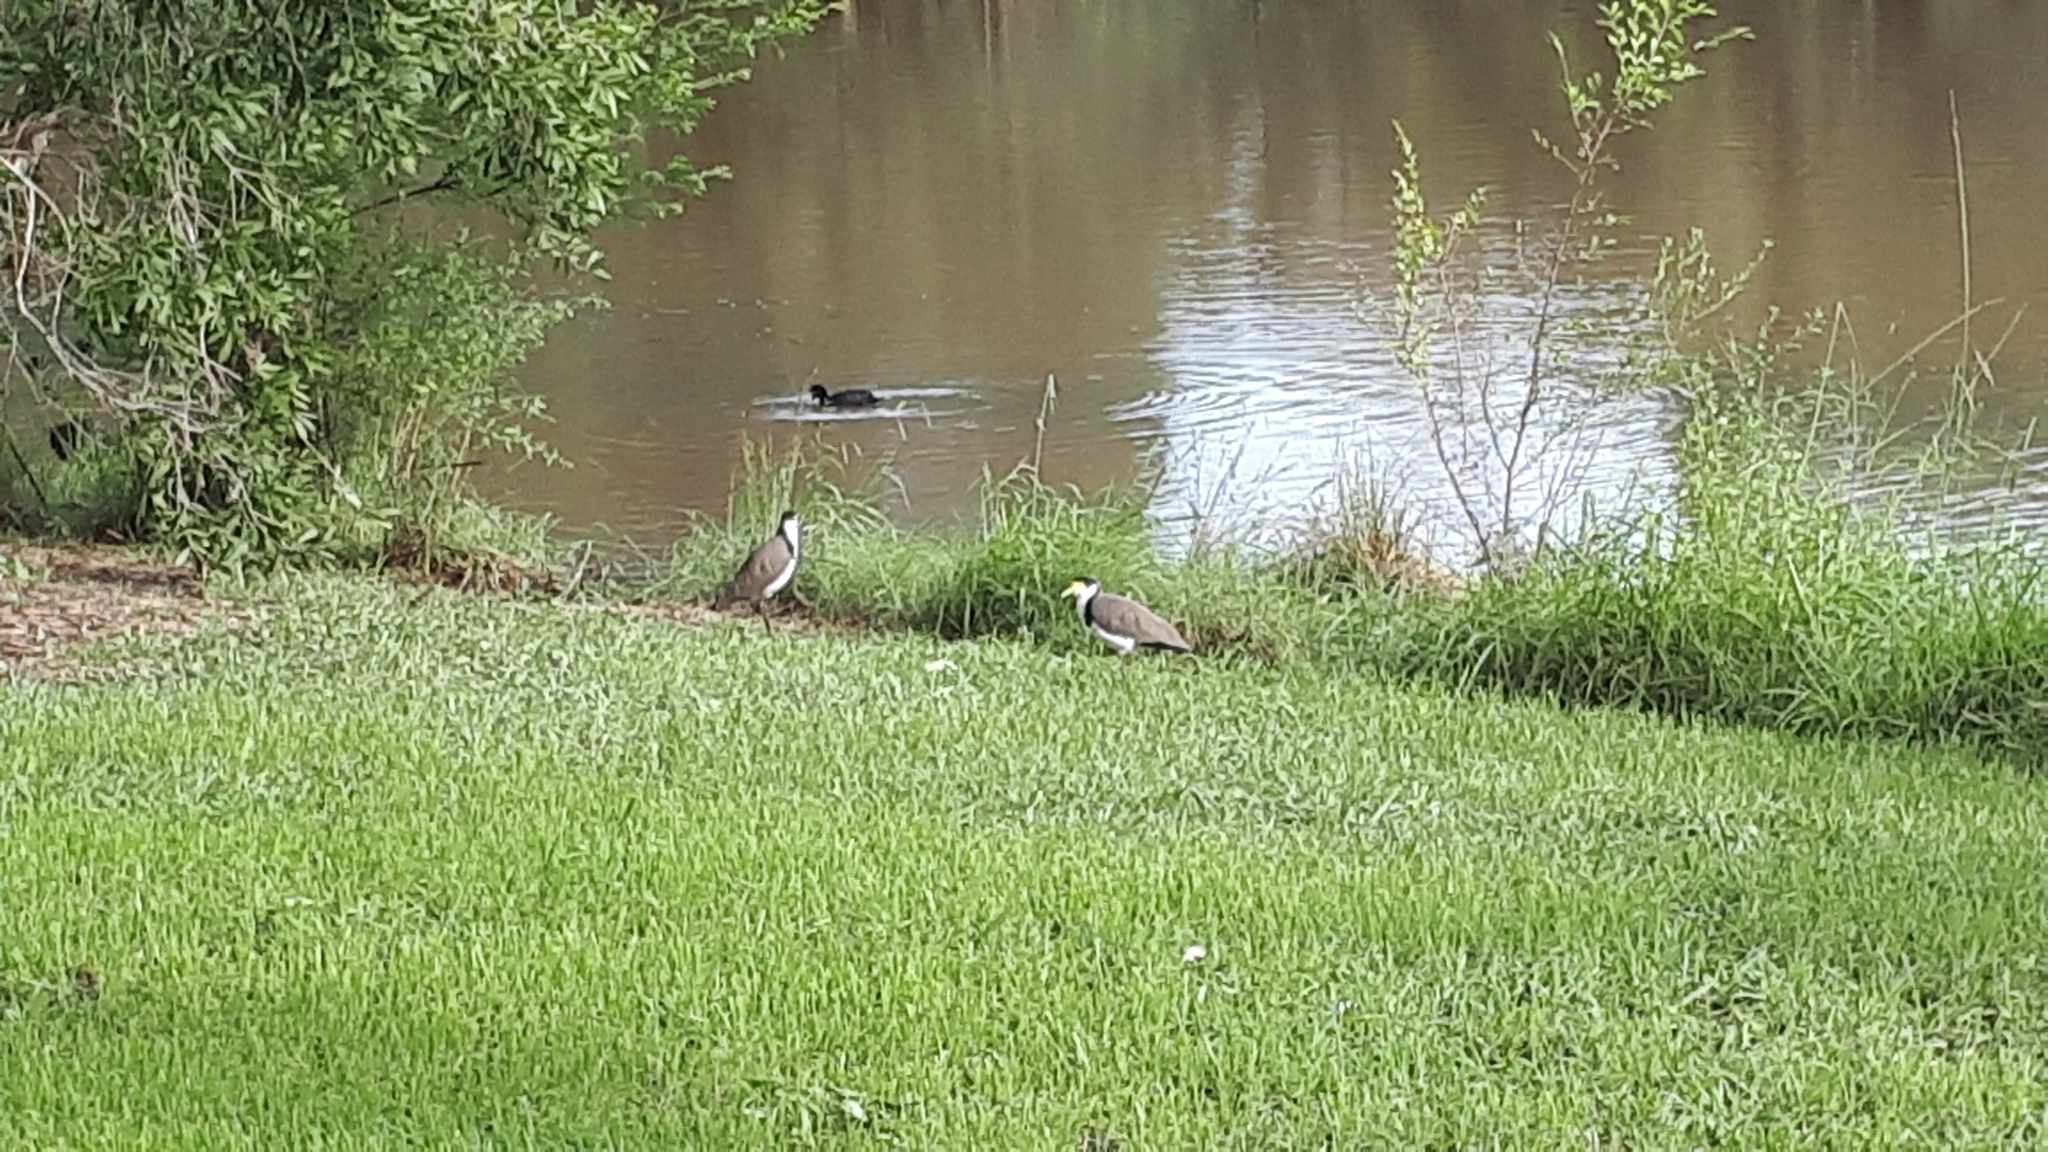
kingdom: Animalia
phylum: Chordata
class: Aves
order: Charadriiformes
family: Charadriidae
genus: Vanellus
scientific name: Vanellus miles
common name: Masked lapwing
